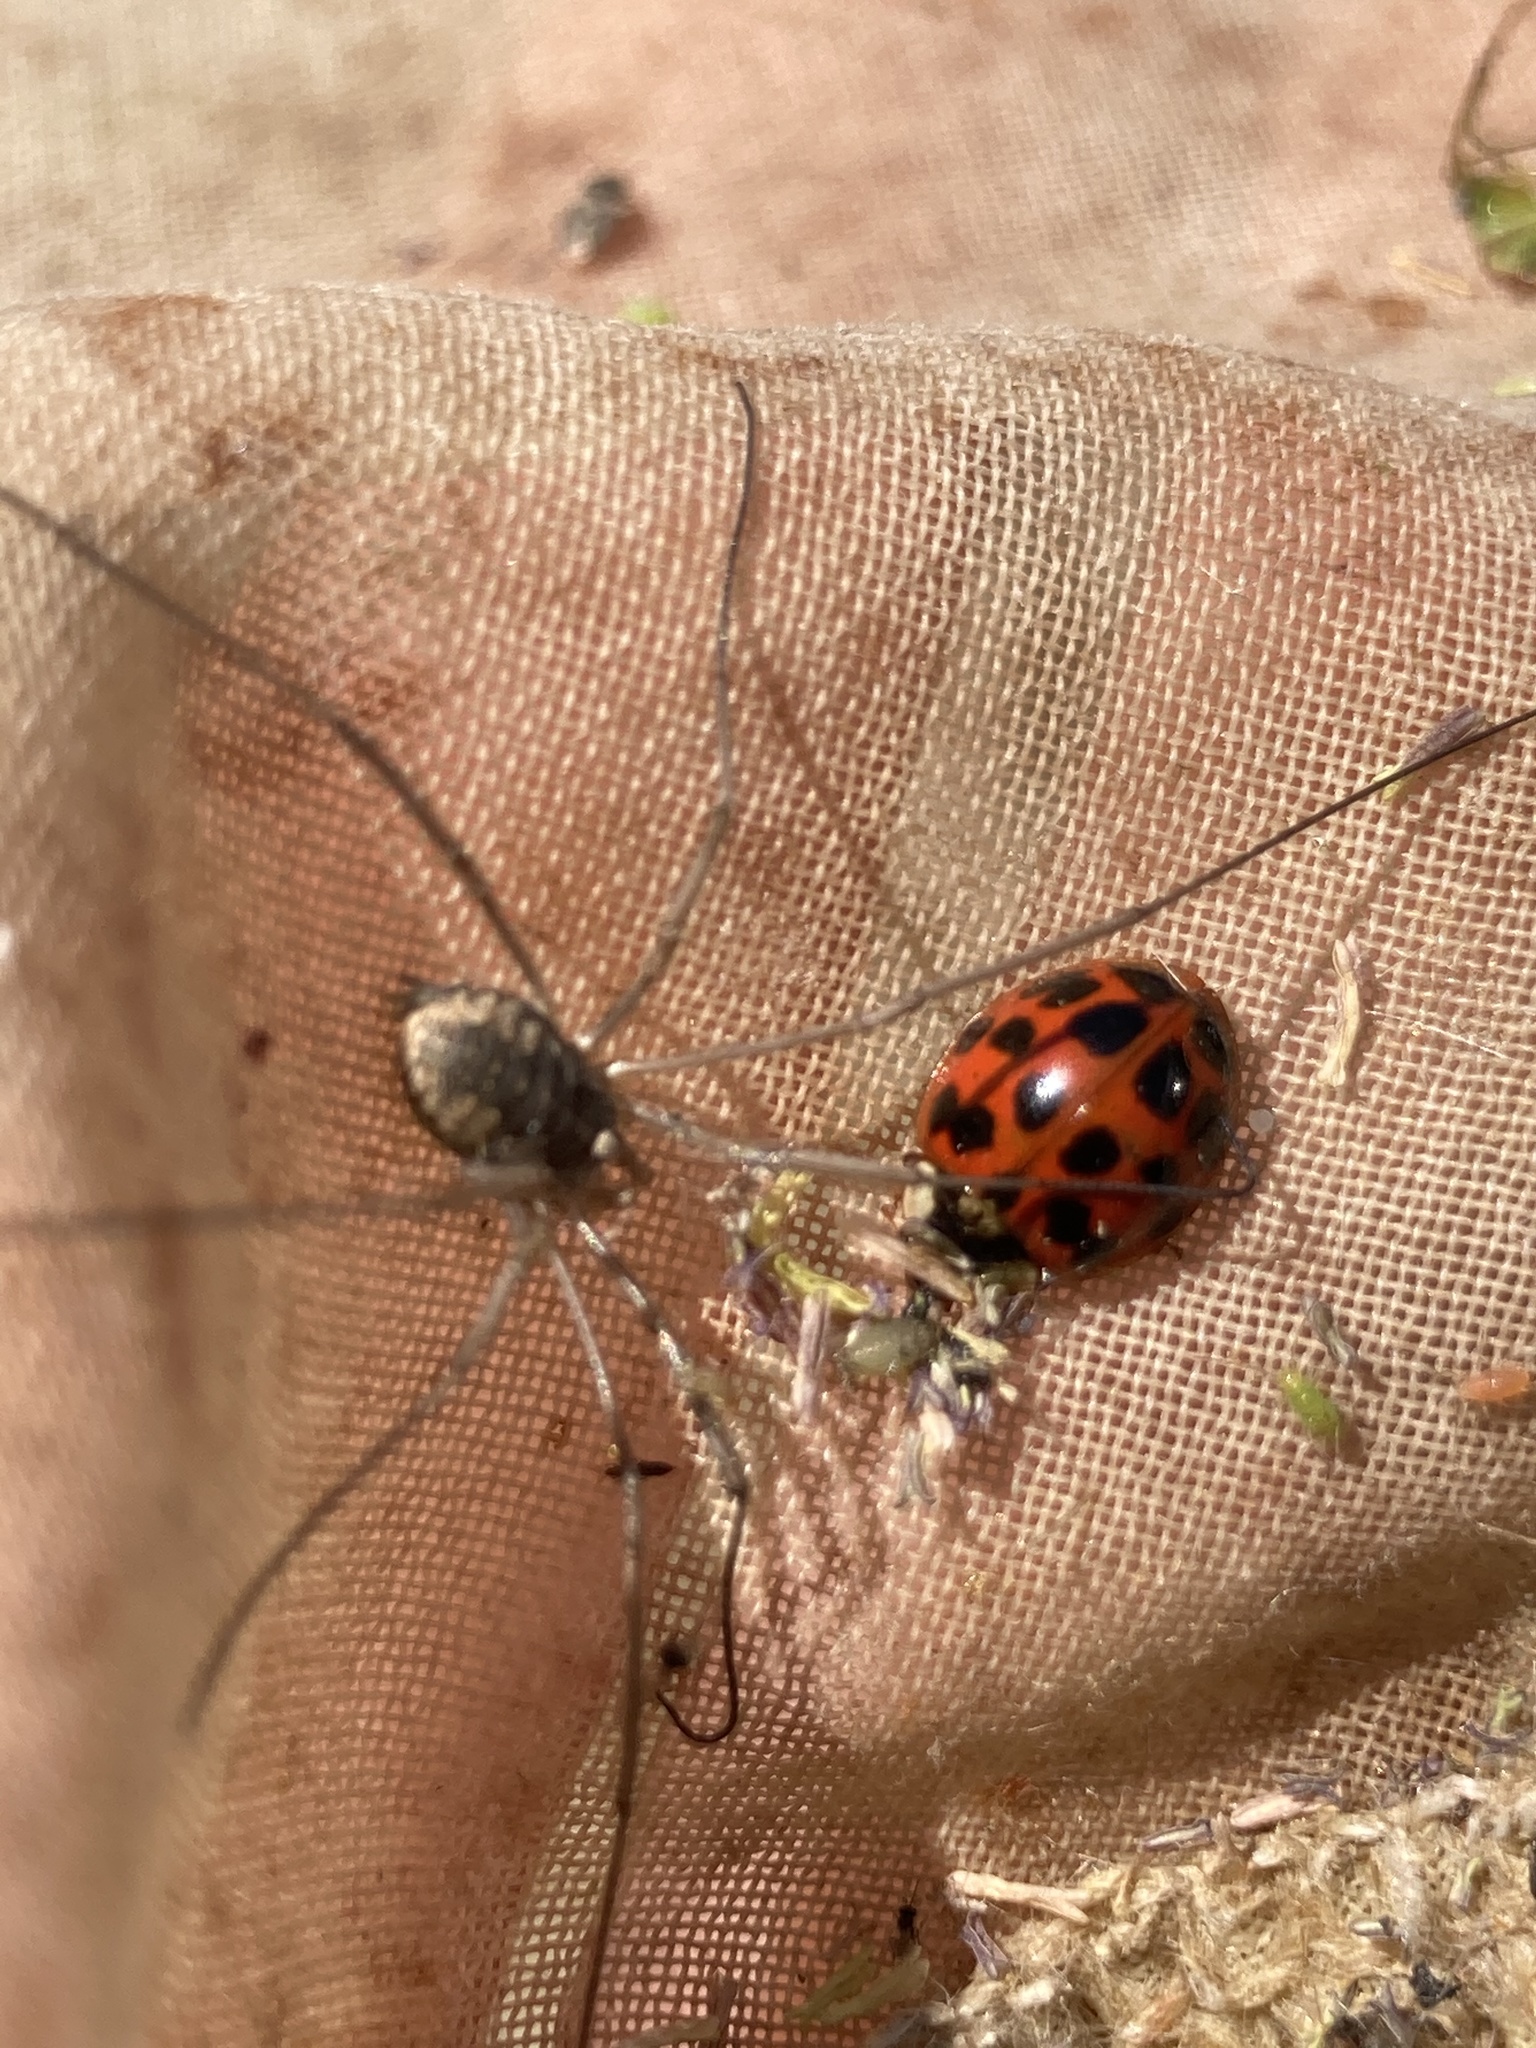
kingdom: Animalia
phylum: Arthropoda
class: Insecta
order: Coleoptera
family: Coccinellidae
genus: Harmonia
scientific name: Harmonia axyridis
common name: Harlequin ladybird
